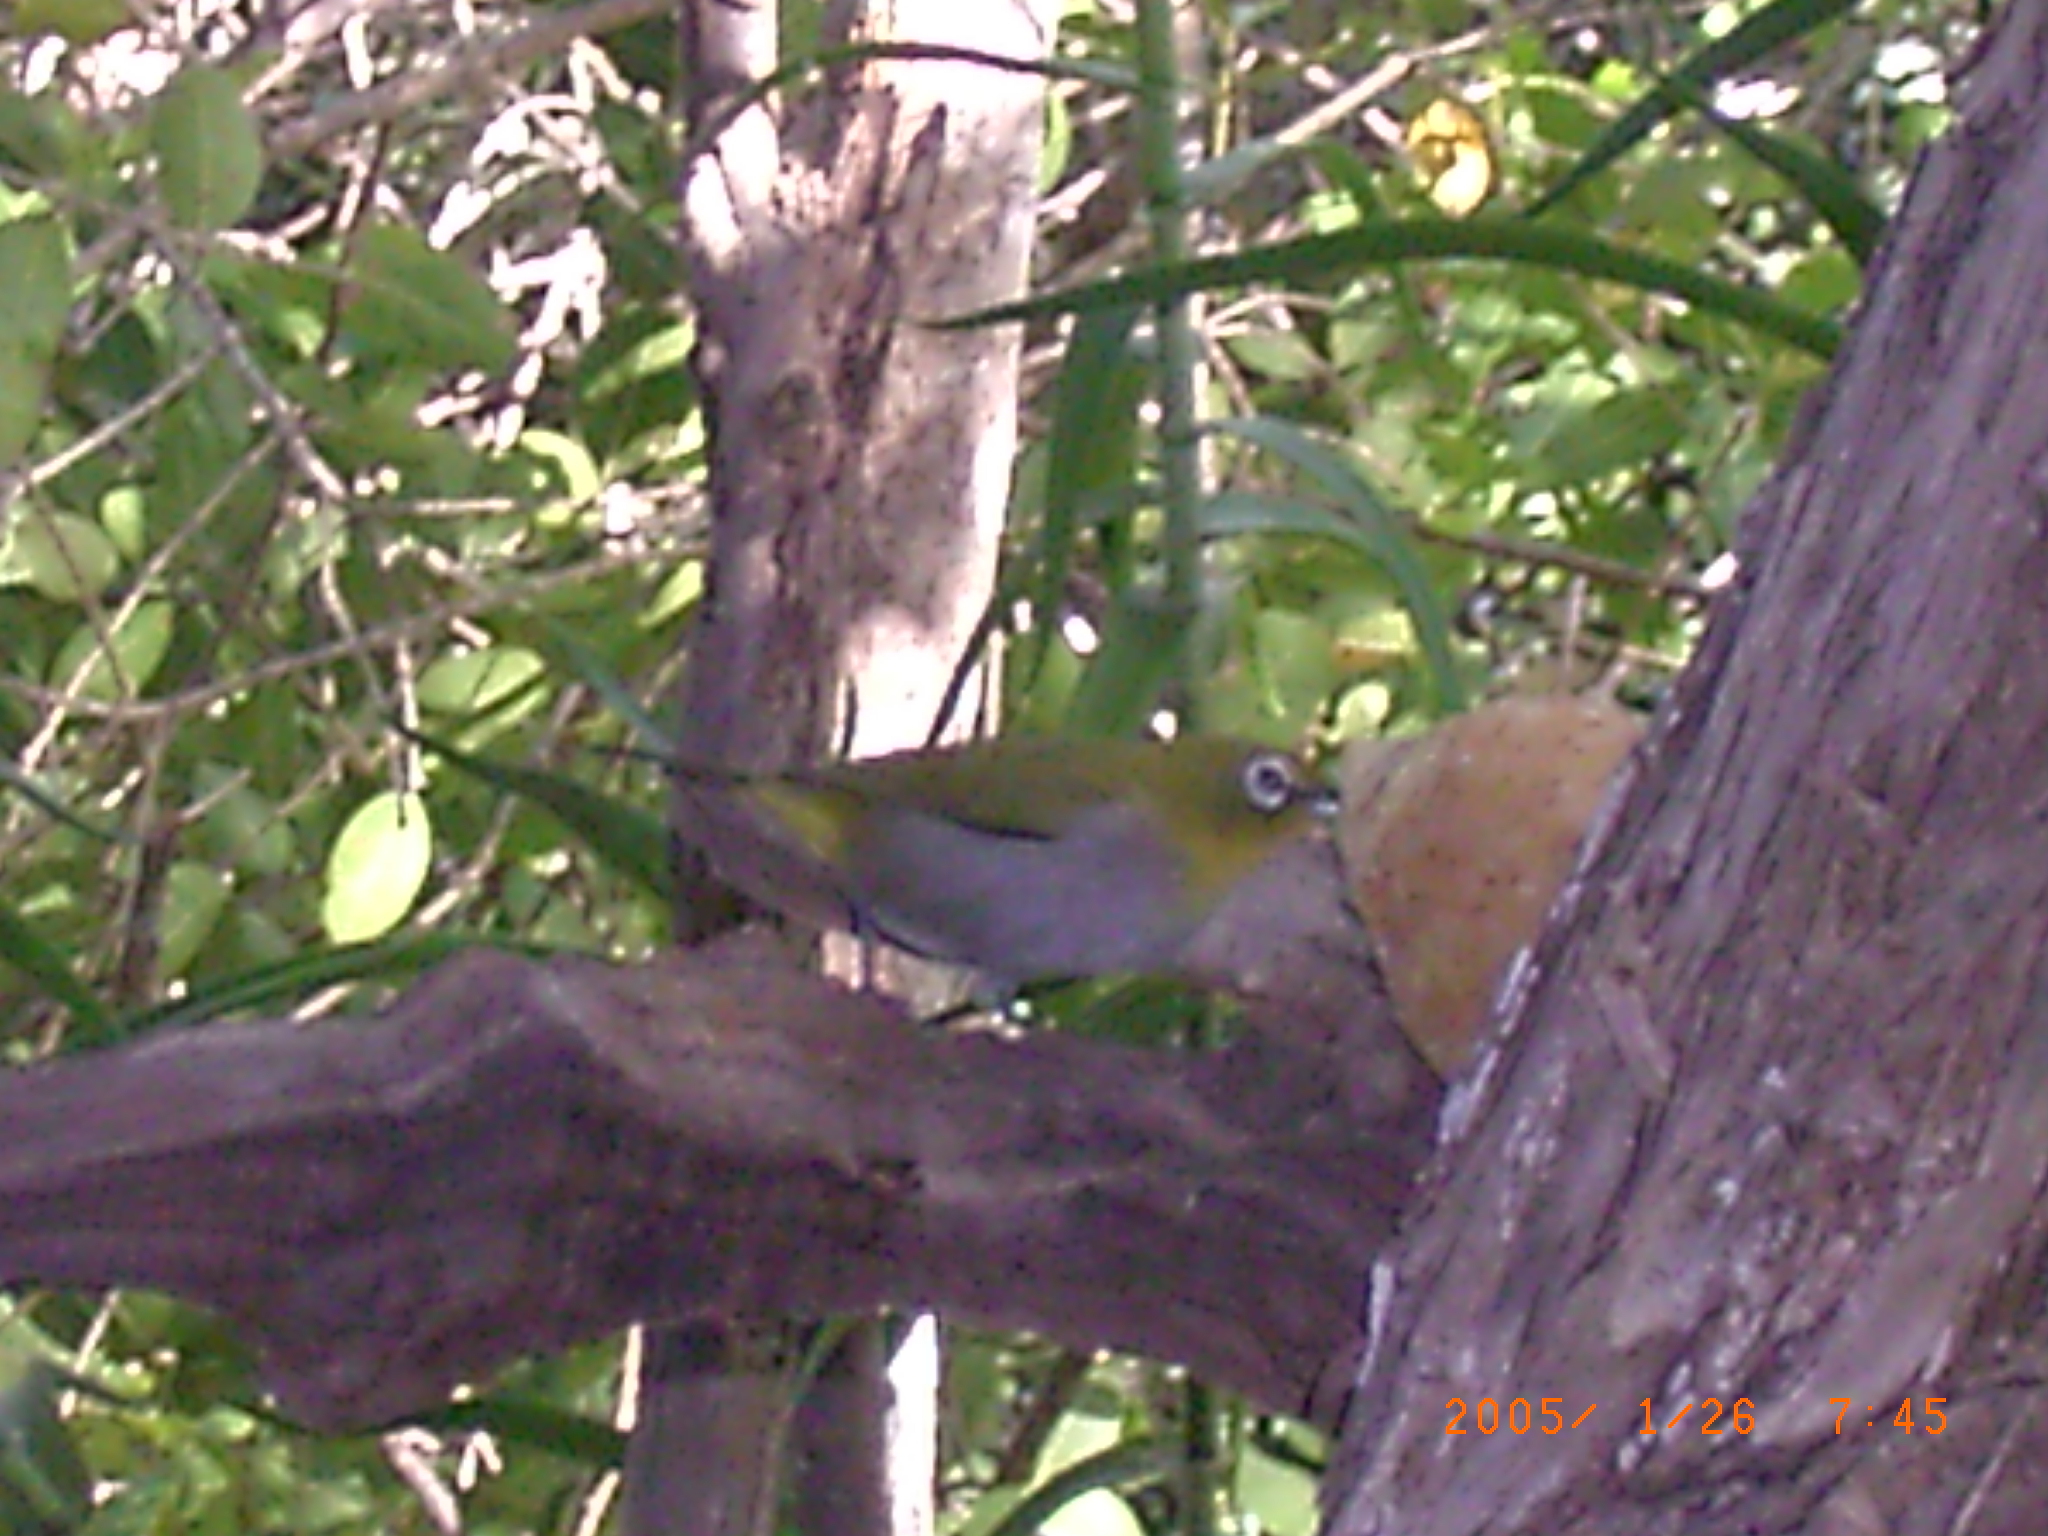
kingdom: Animalia
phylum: Chordata
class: Aves
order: Passeriformes
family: Zosteropidae
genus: Zosterops
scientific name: Zosterops virens
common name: Cape white-eye
